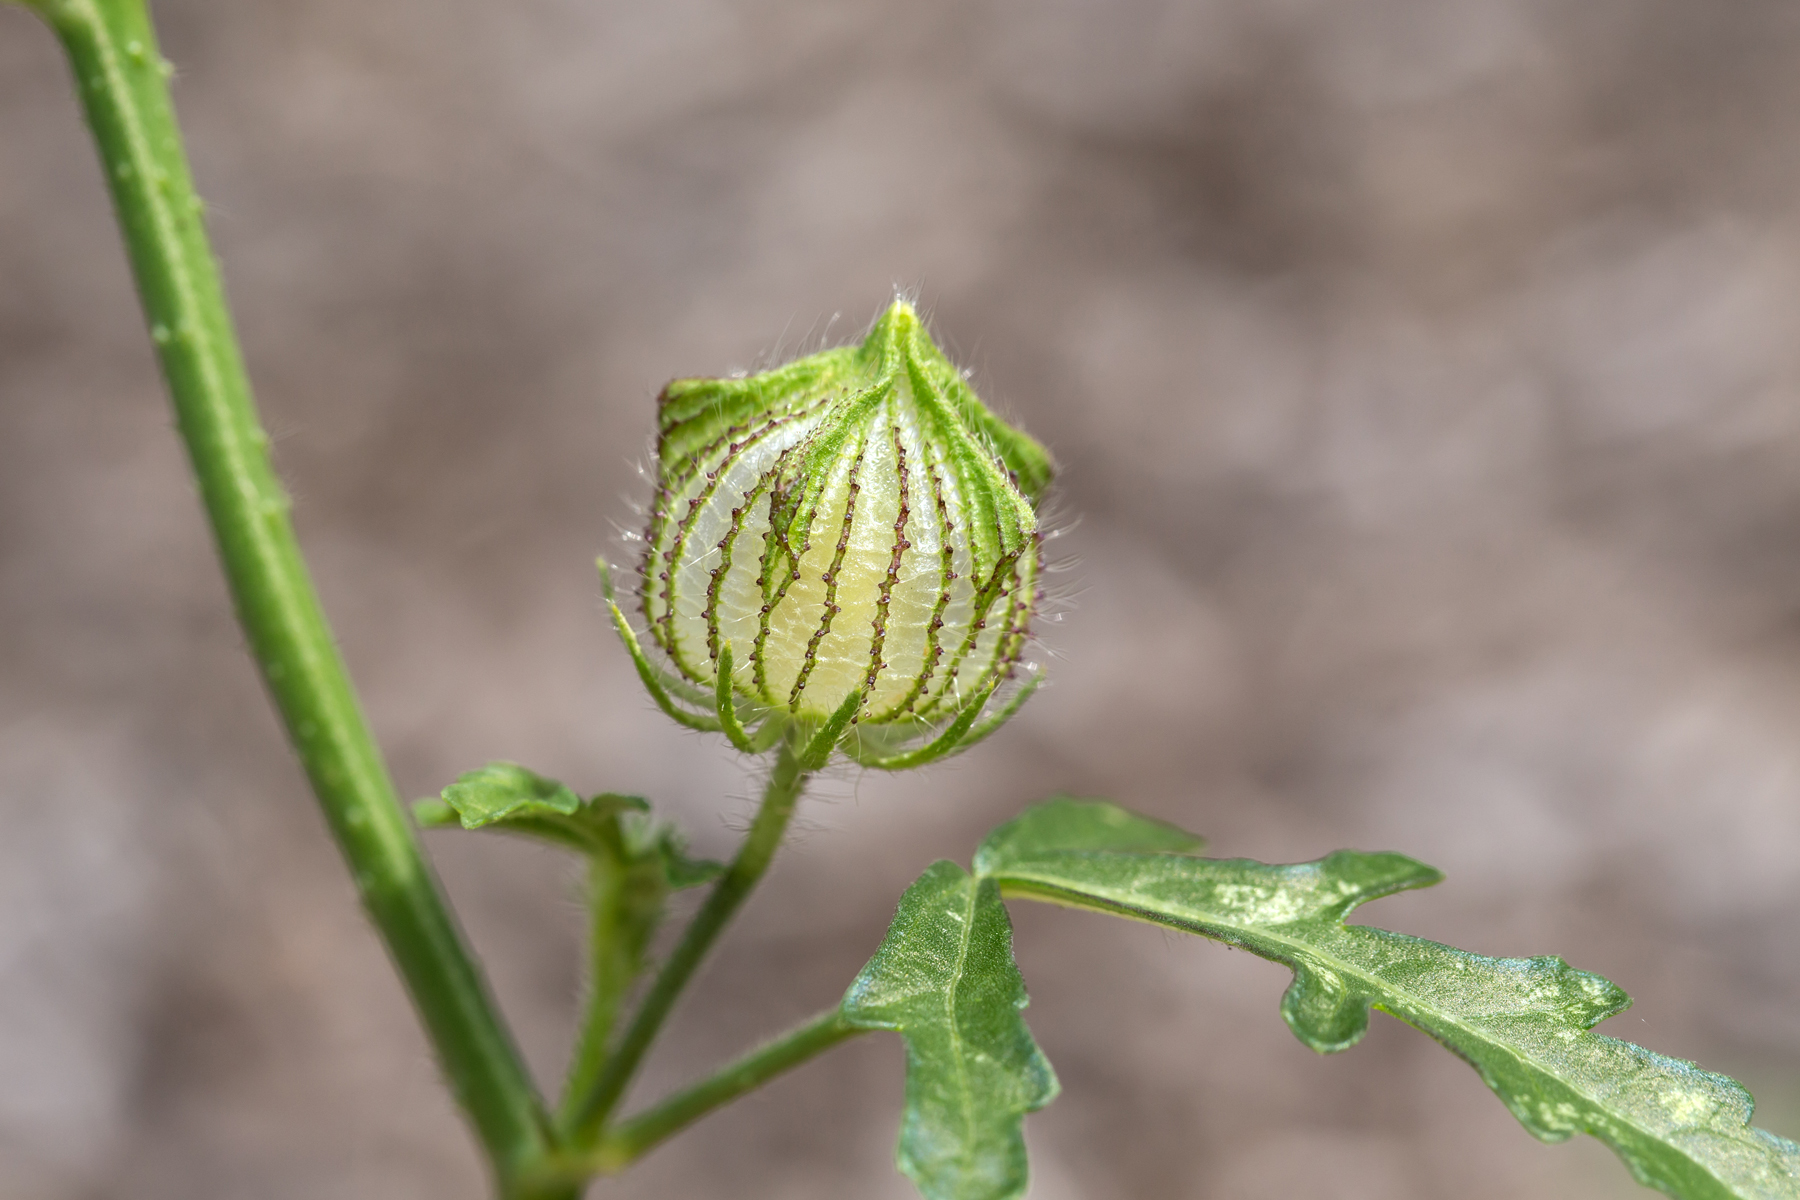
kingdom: Plantae
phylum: Tracheophyta
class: Magnoliopsida
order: Malvales
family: Malvaceae
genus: Hibiscus
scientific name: Hibiscus trionum
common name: Bladder ketmia
